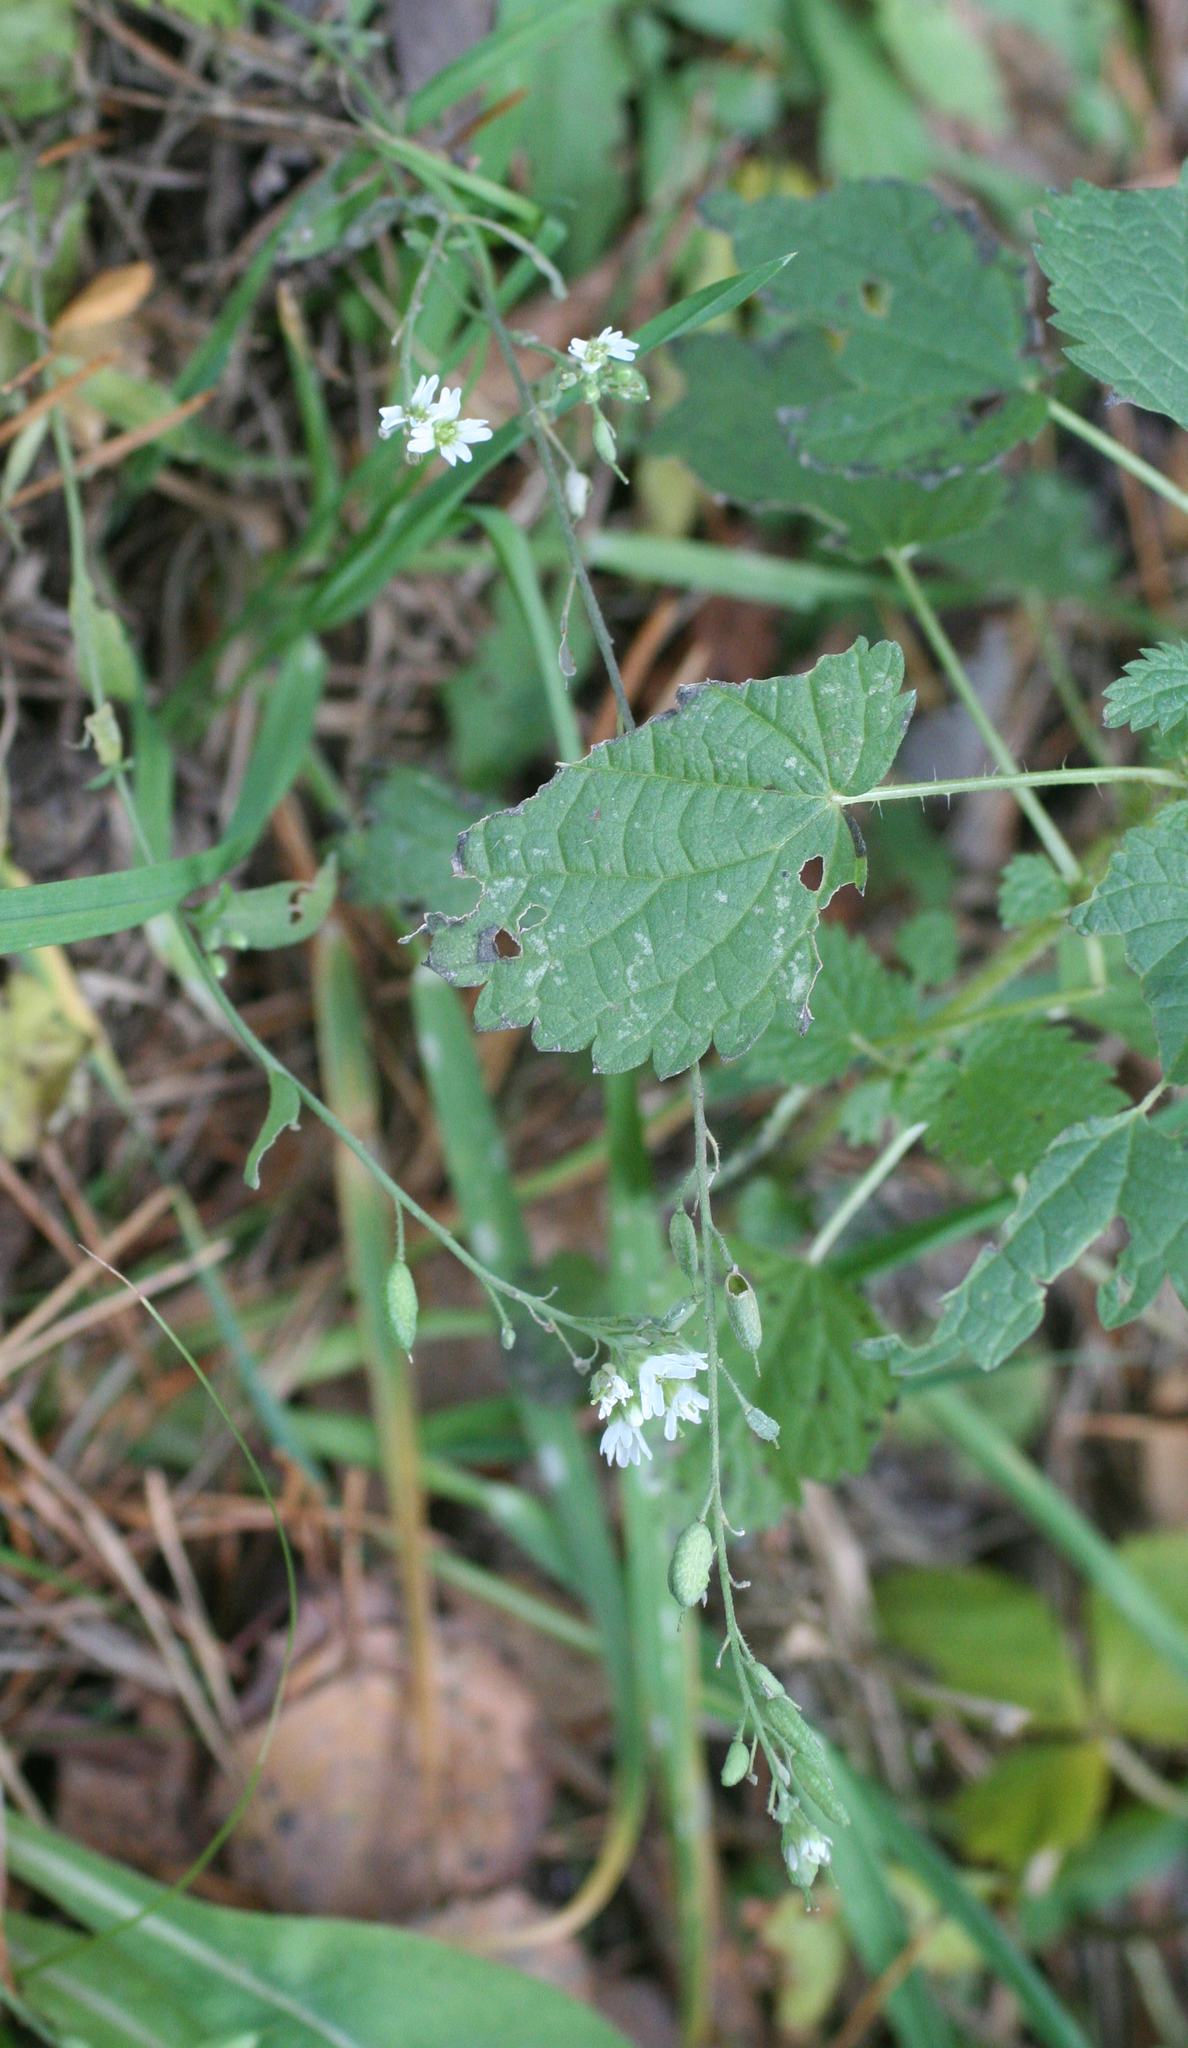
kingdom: Plantae
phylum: Tracheophyta
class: Magnoliopsida
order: Brassicales
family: Brassicaceae
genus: Berteroa
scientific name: Berteroa incana
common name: Hoary alison
